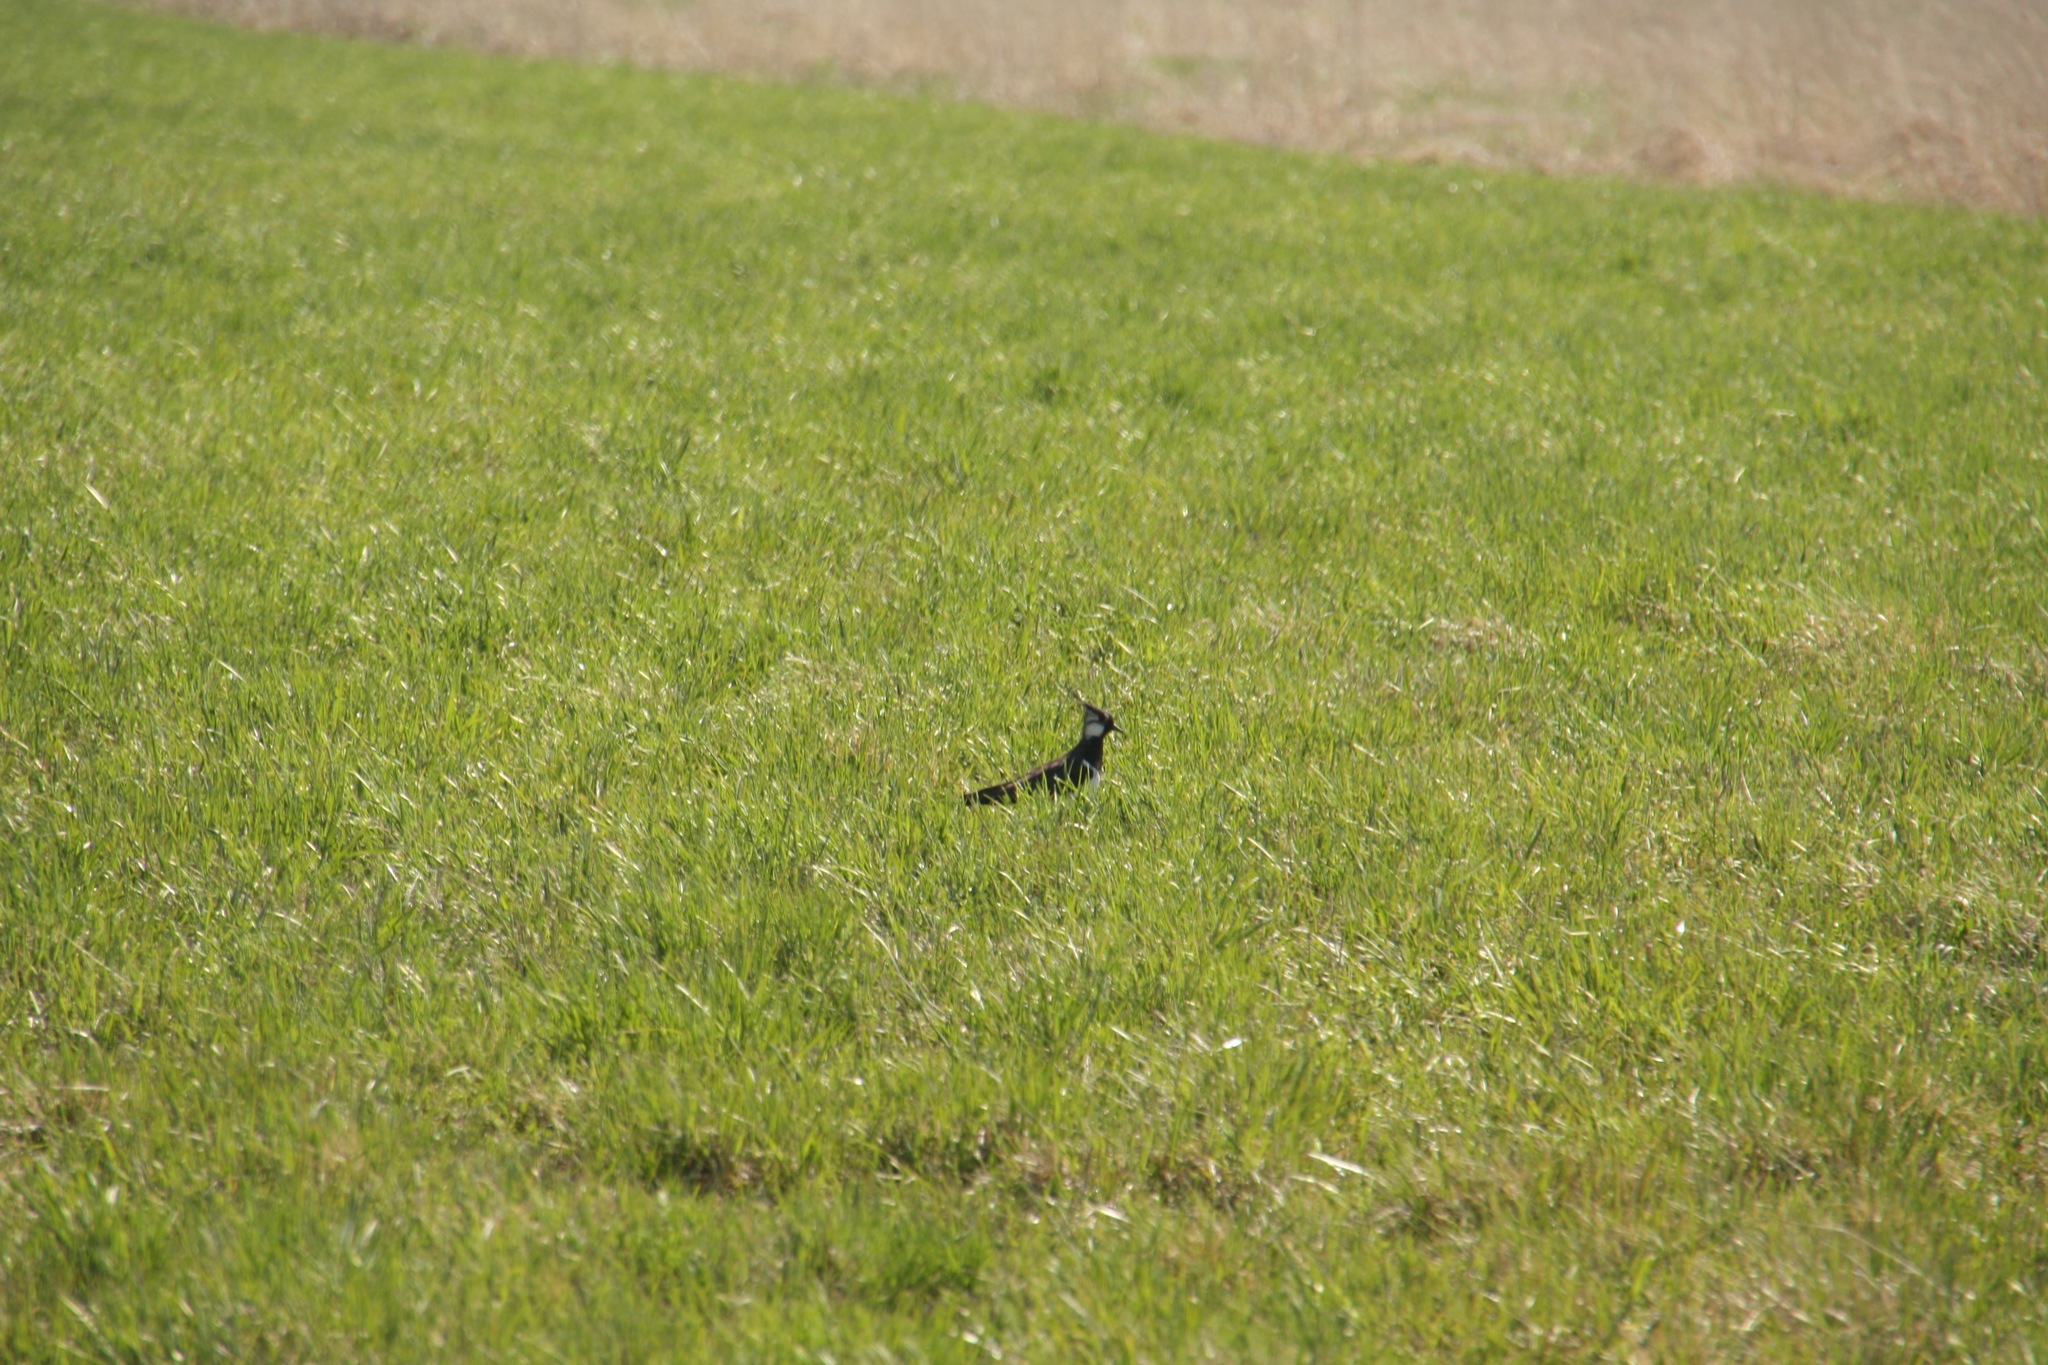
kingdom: Animalia
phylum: Chordata
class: Aves
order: Charadriiformes
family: Charadriidae
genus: Vanellus
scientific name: Vanellus vanellus
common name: Northern lapwing
